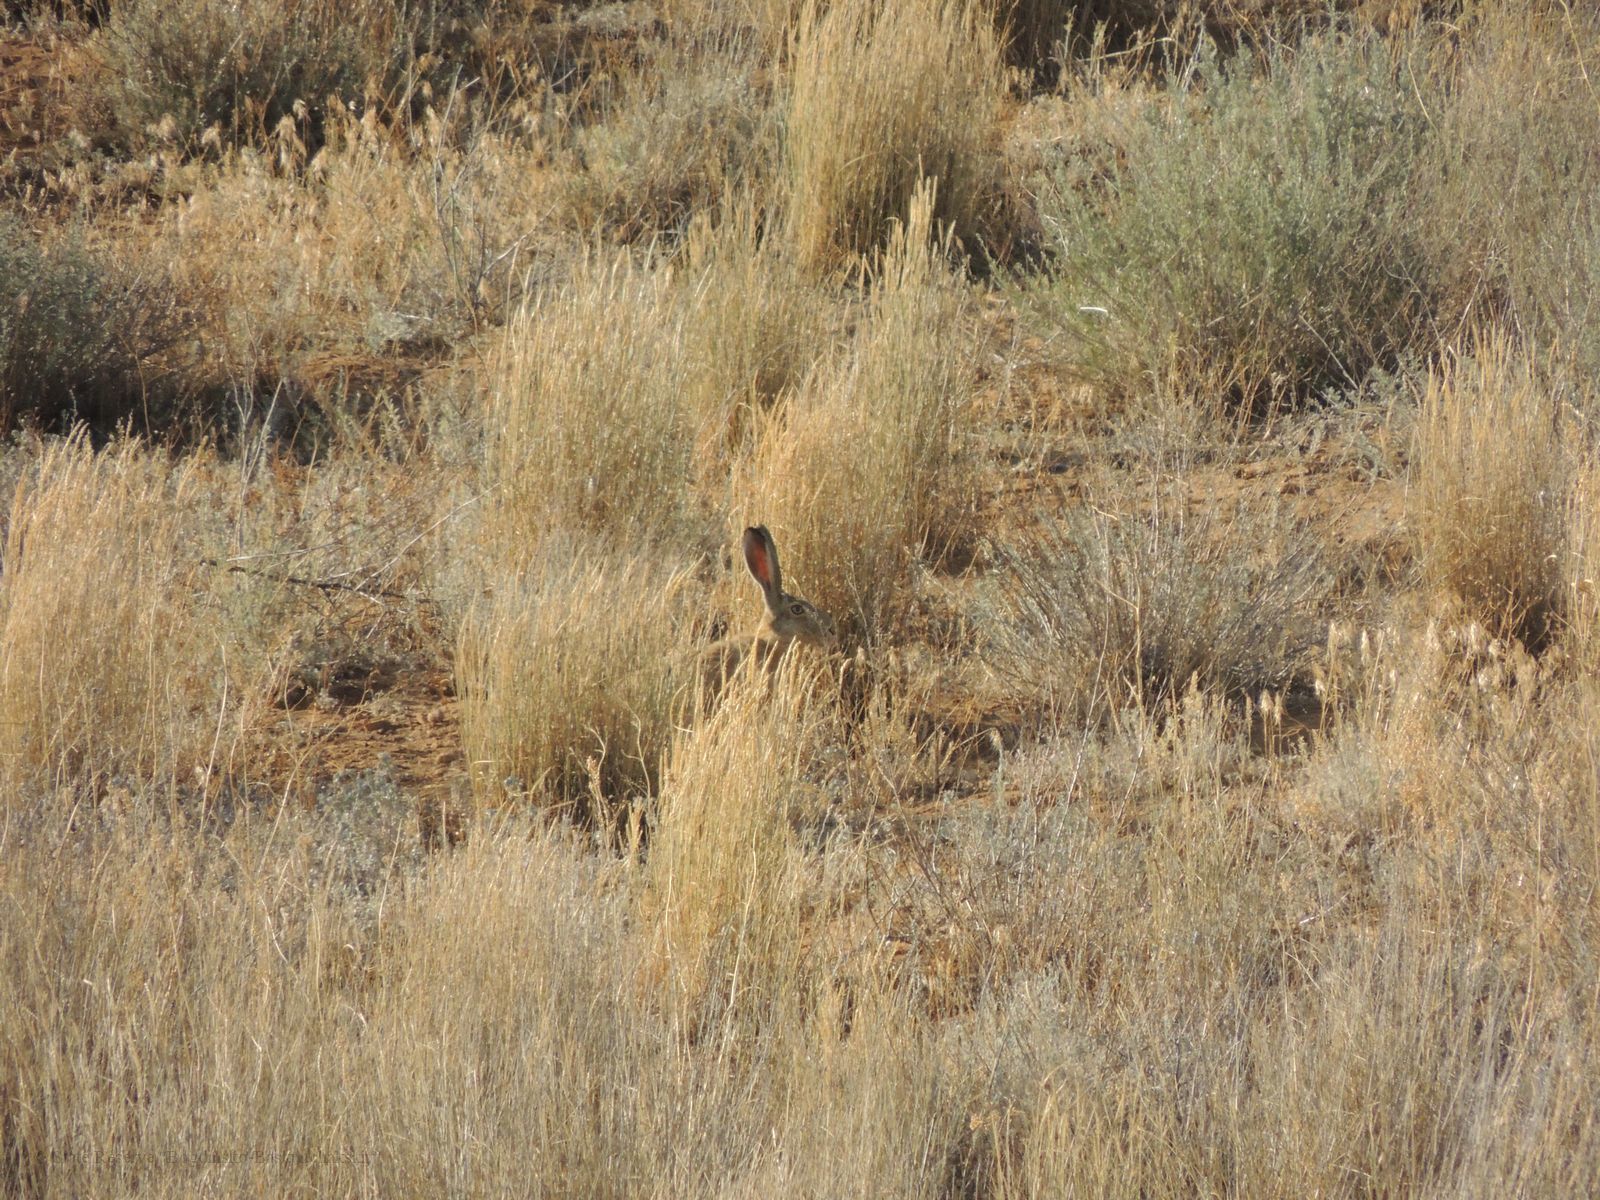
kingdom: Animalia
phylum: Chordata
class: Mammalia
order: Lagomorpha
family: Leporidae
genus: Lepus
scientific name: Lepus europaeus
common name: European hare
